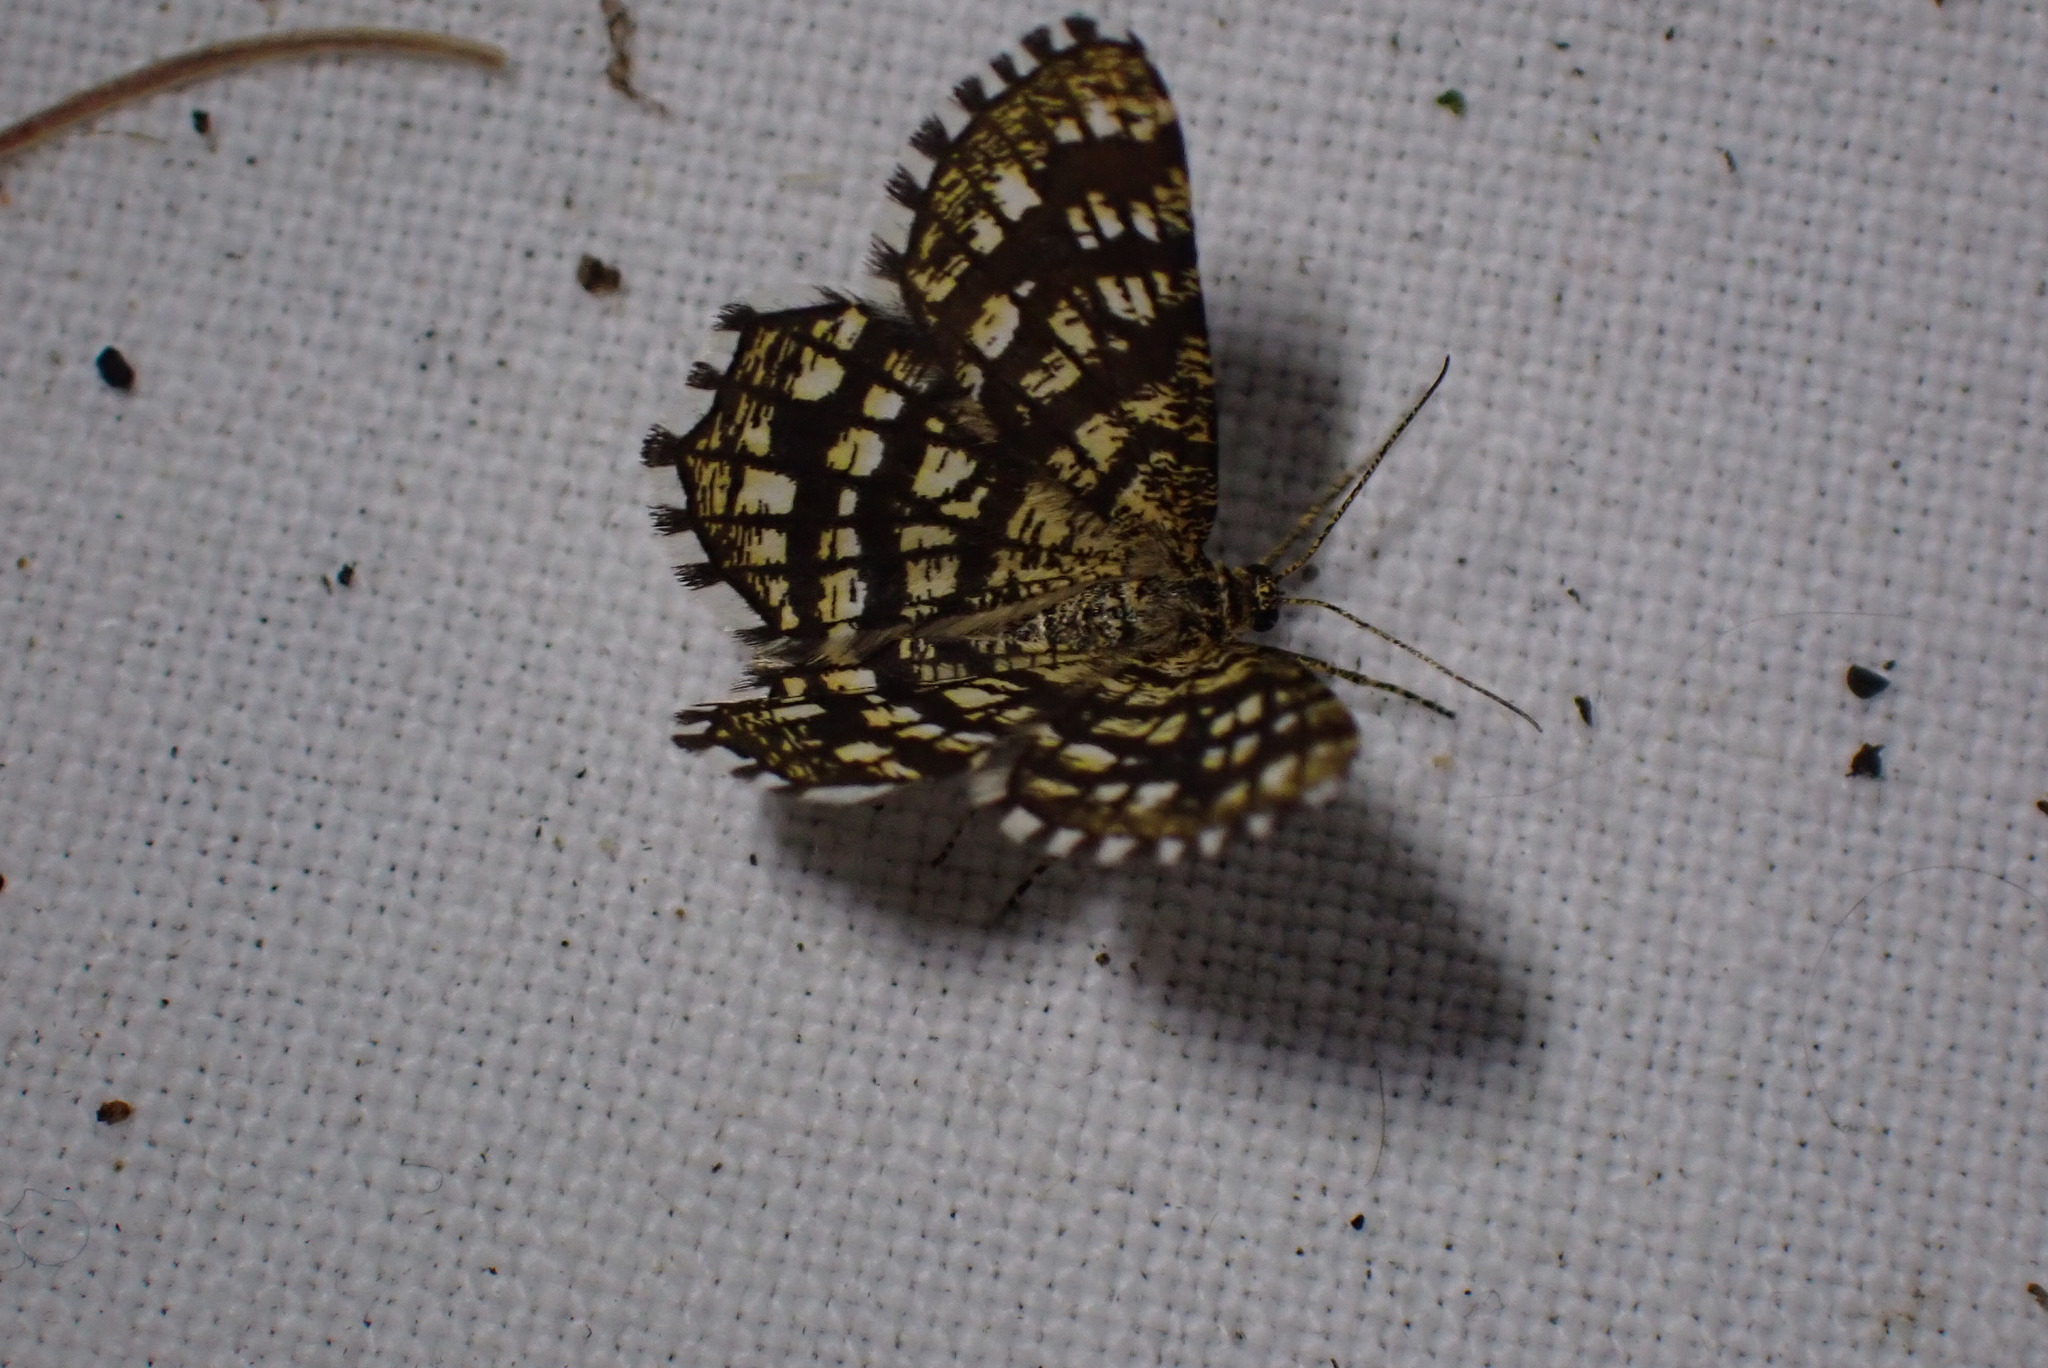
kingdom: Animalia
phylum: Arthropoda
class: Insecta
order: Lepidoptera
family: Geometridae
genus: Chiasmia
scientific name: Chiasmia clathrata
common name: Latticed heath
